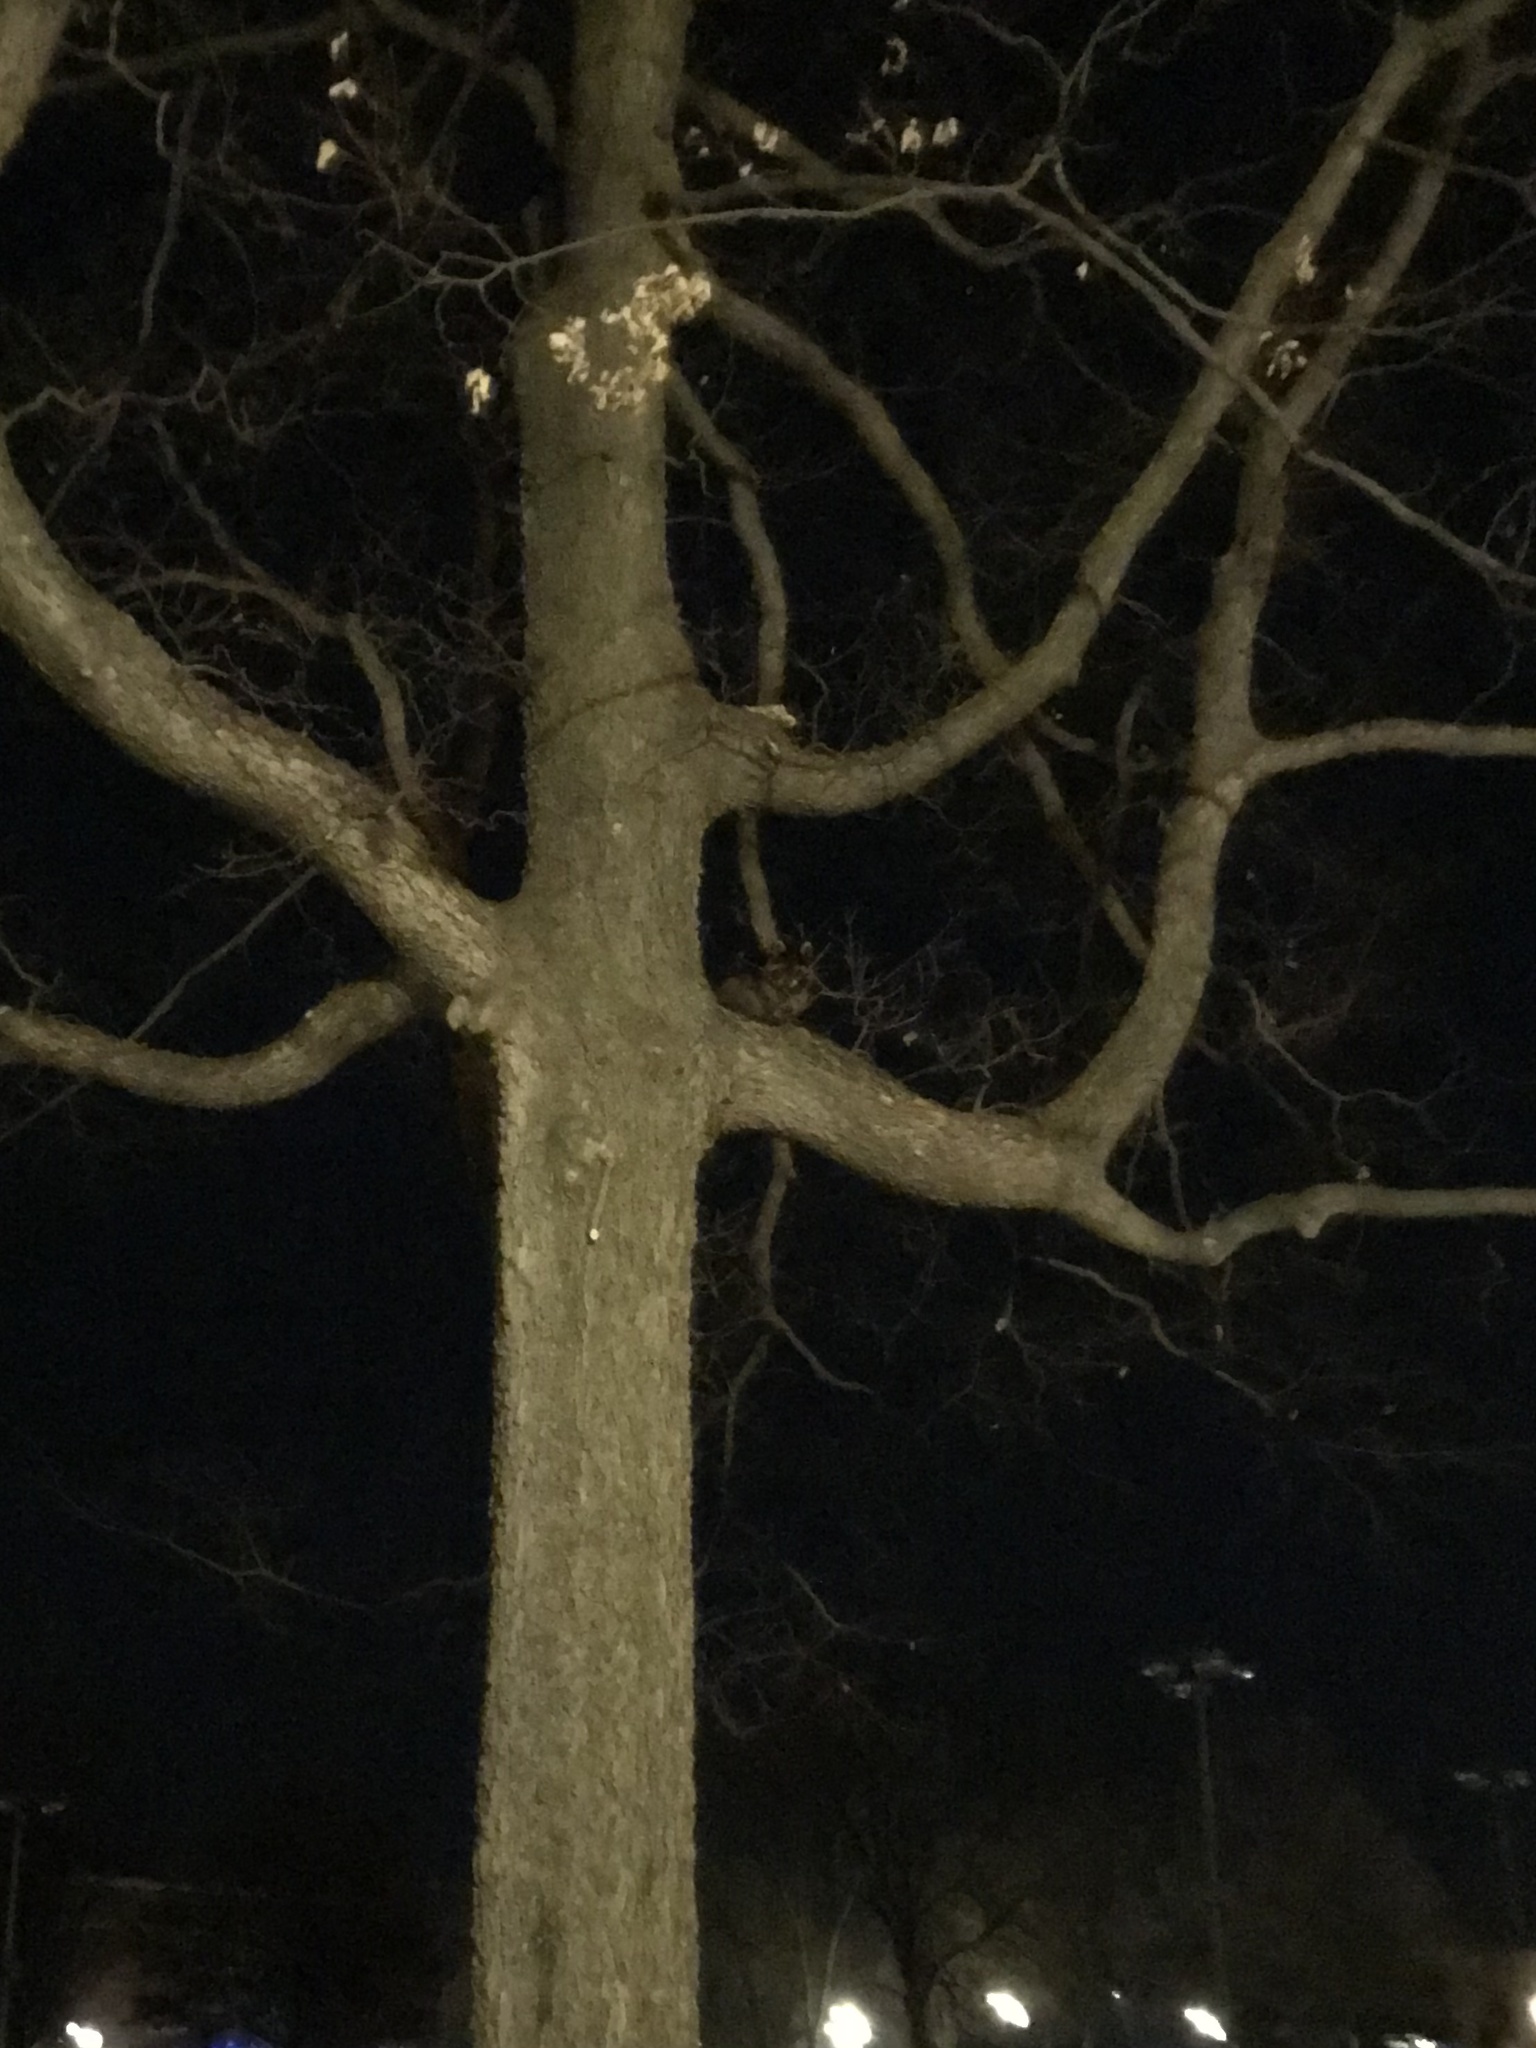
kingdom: Animalia
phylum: Chordata
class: Mammalia
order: Carnivora
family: Procyonidae
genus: Procyon
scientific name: Procyon lotor
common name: Raccoon
